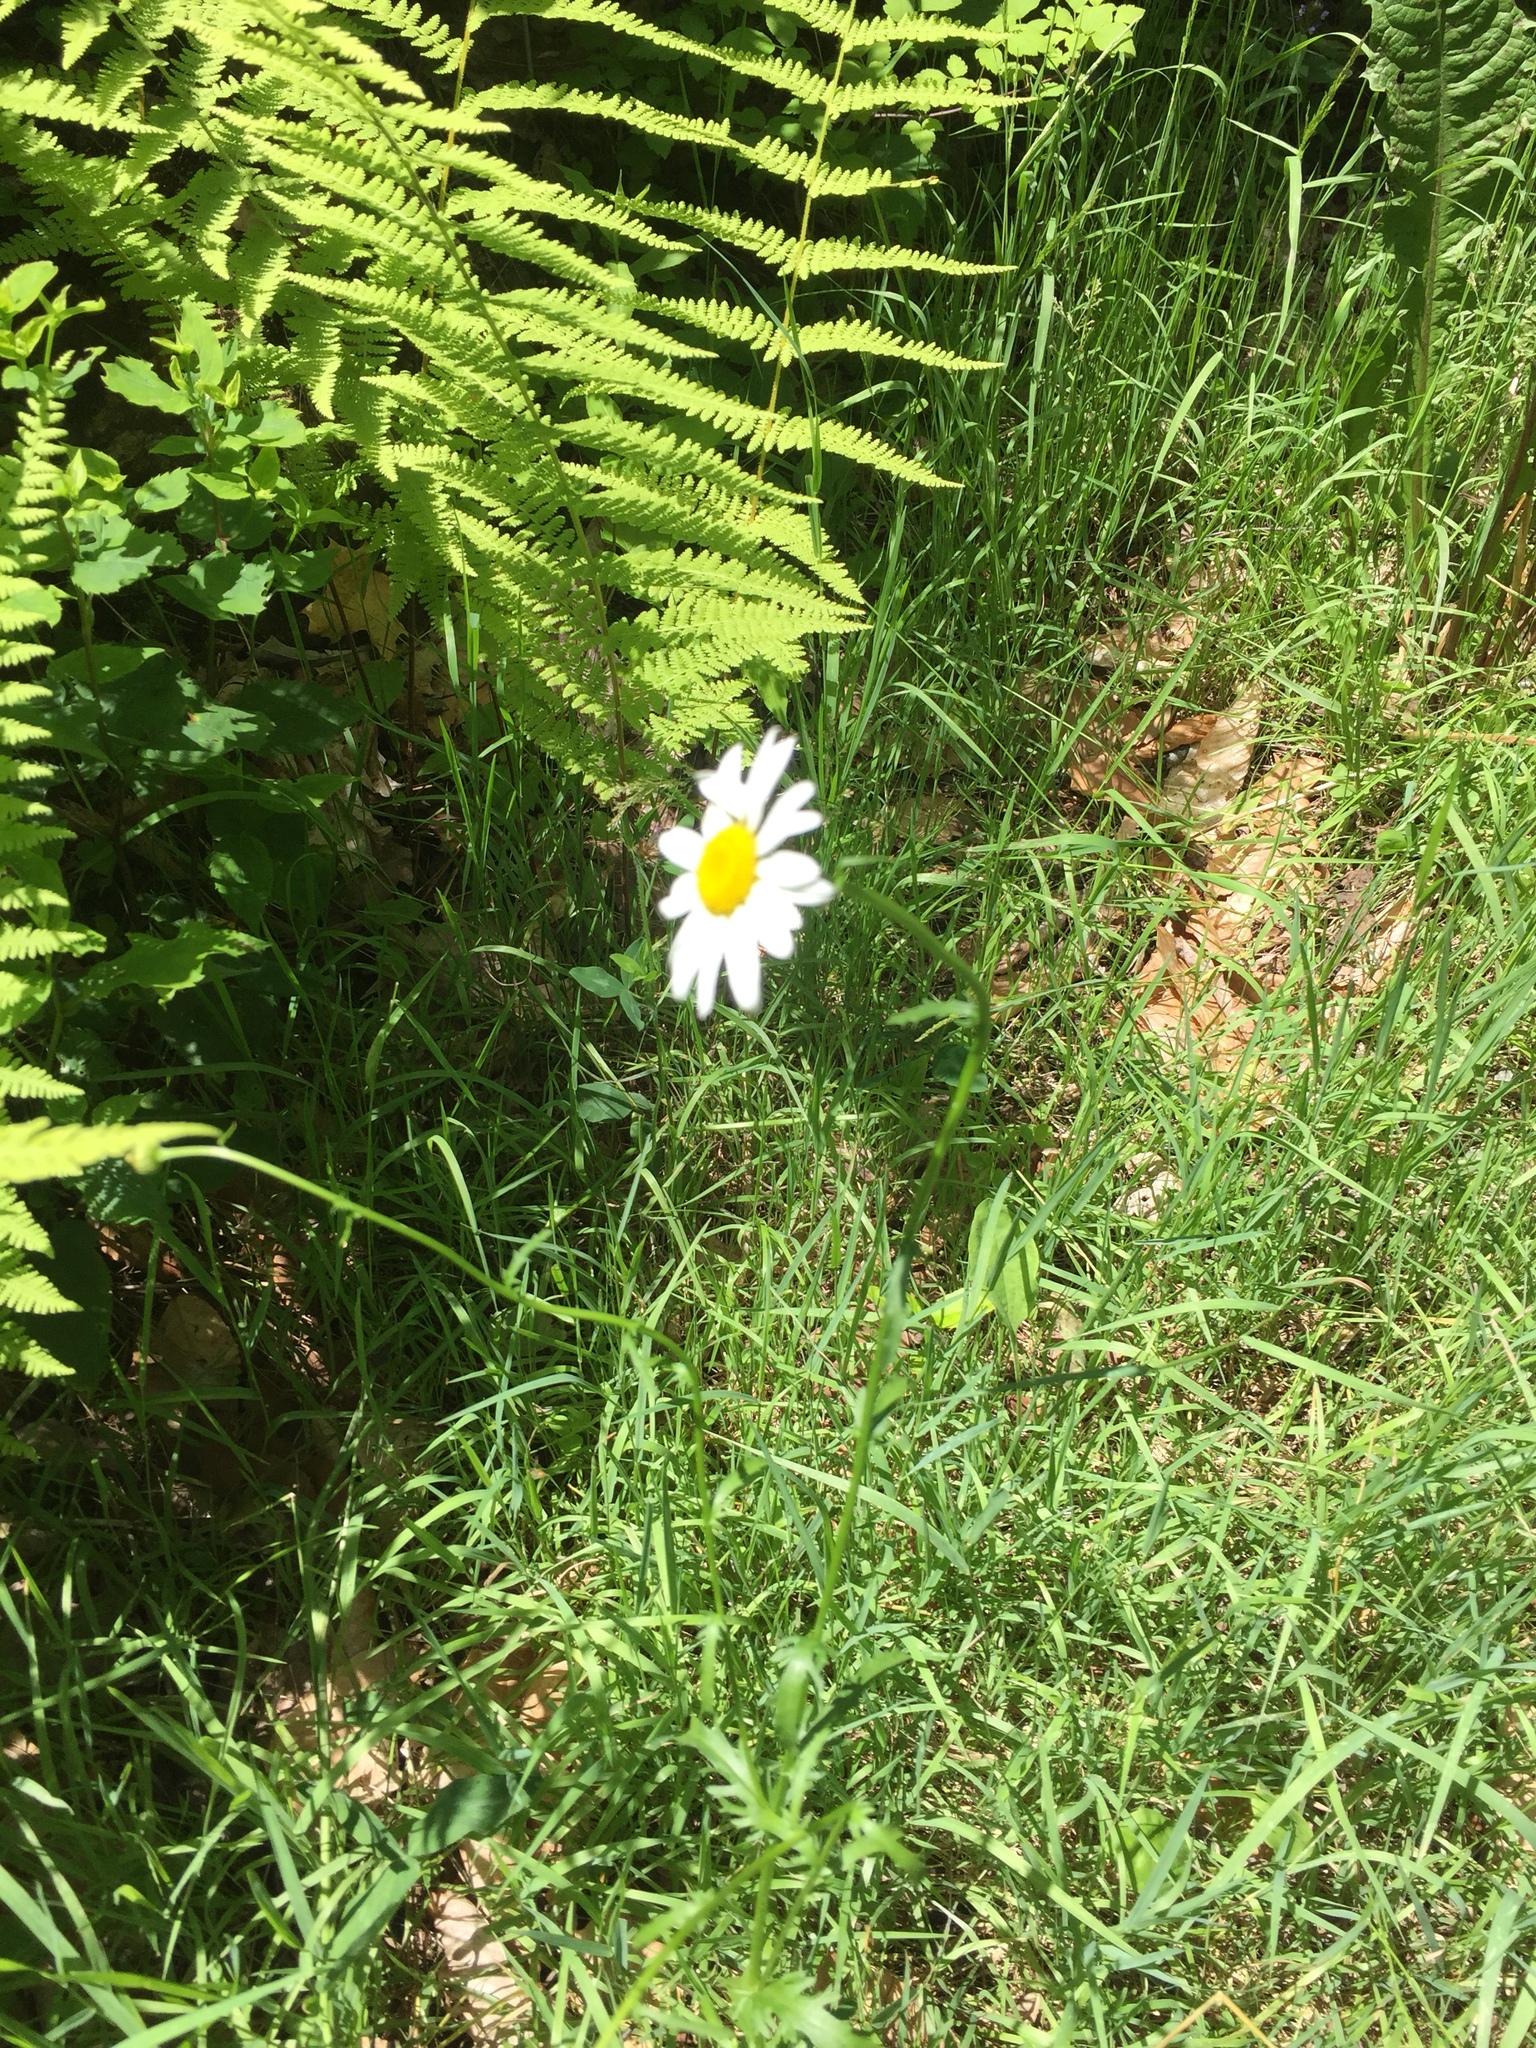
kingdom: Plantae
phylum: Tracheophyta
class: Magnoliopsida
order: Asterales
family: Asteraceae
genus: Leucanthemum
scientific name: Leucanthemum vulgare
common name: Oxeye daisy
